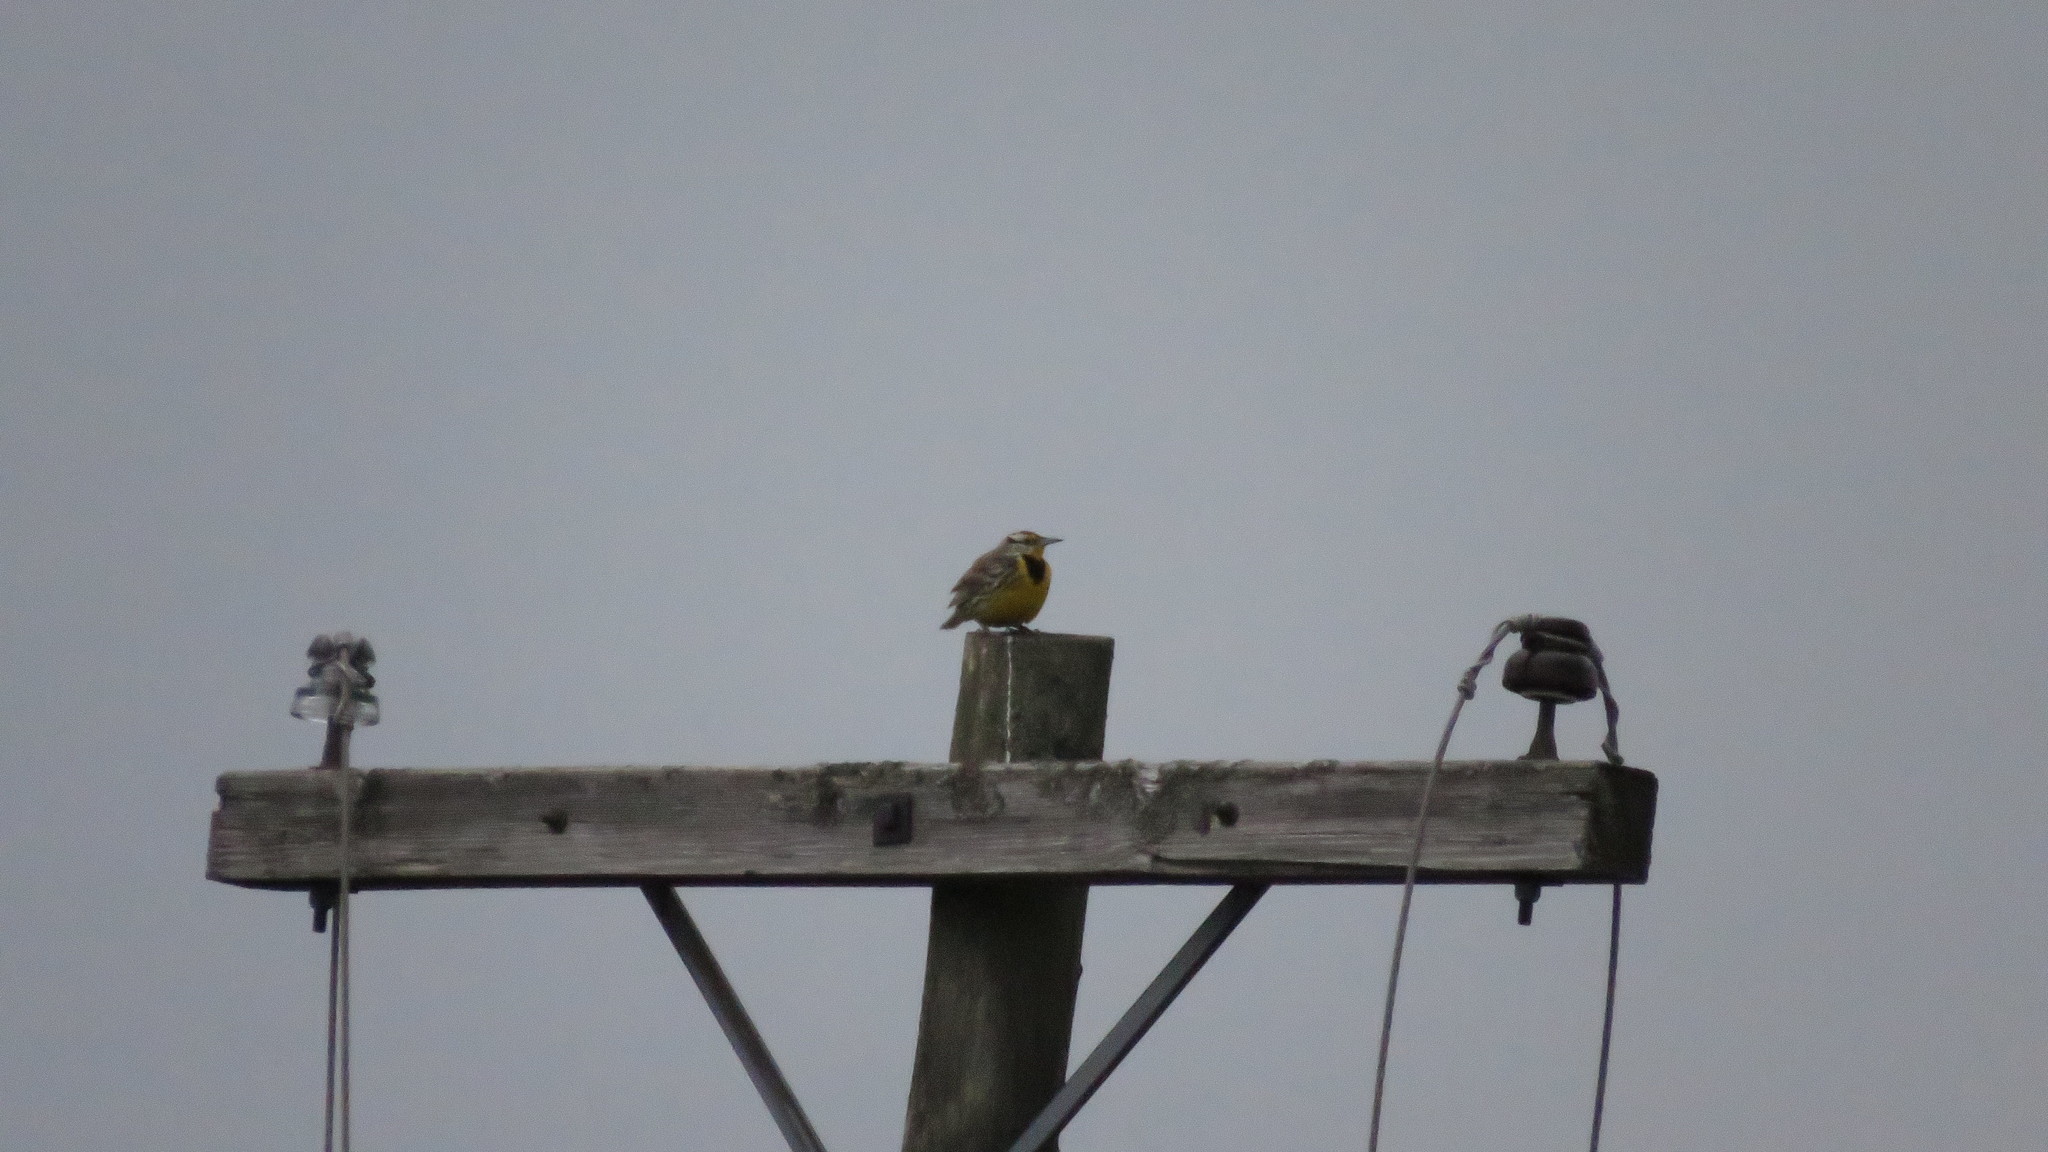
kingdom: Animalia
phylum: Chordata
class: Aves
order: Passeriformes
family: Icteridae
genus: Sturnella
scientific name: Sturnella magna
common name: Eastern meadowlark
